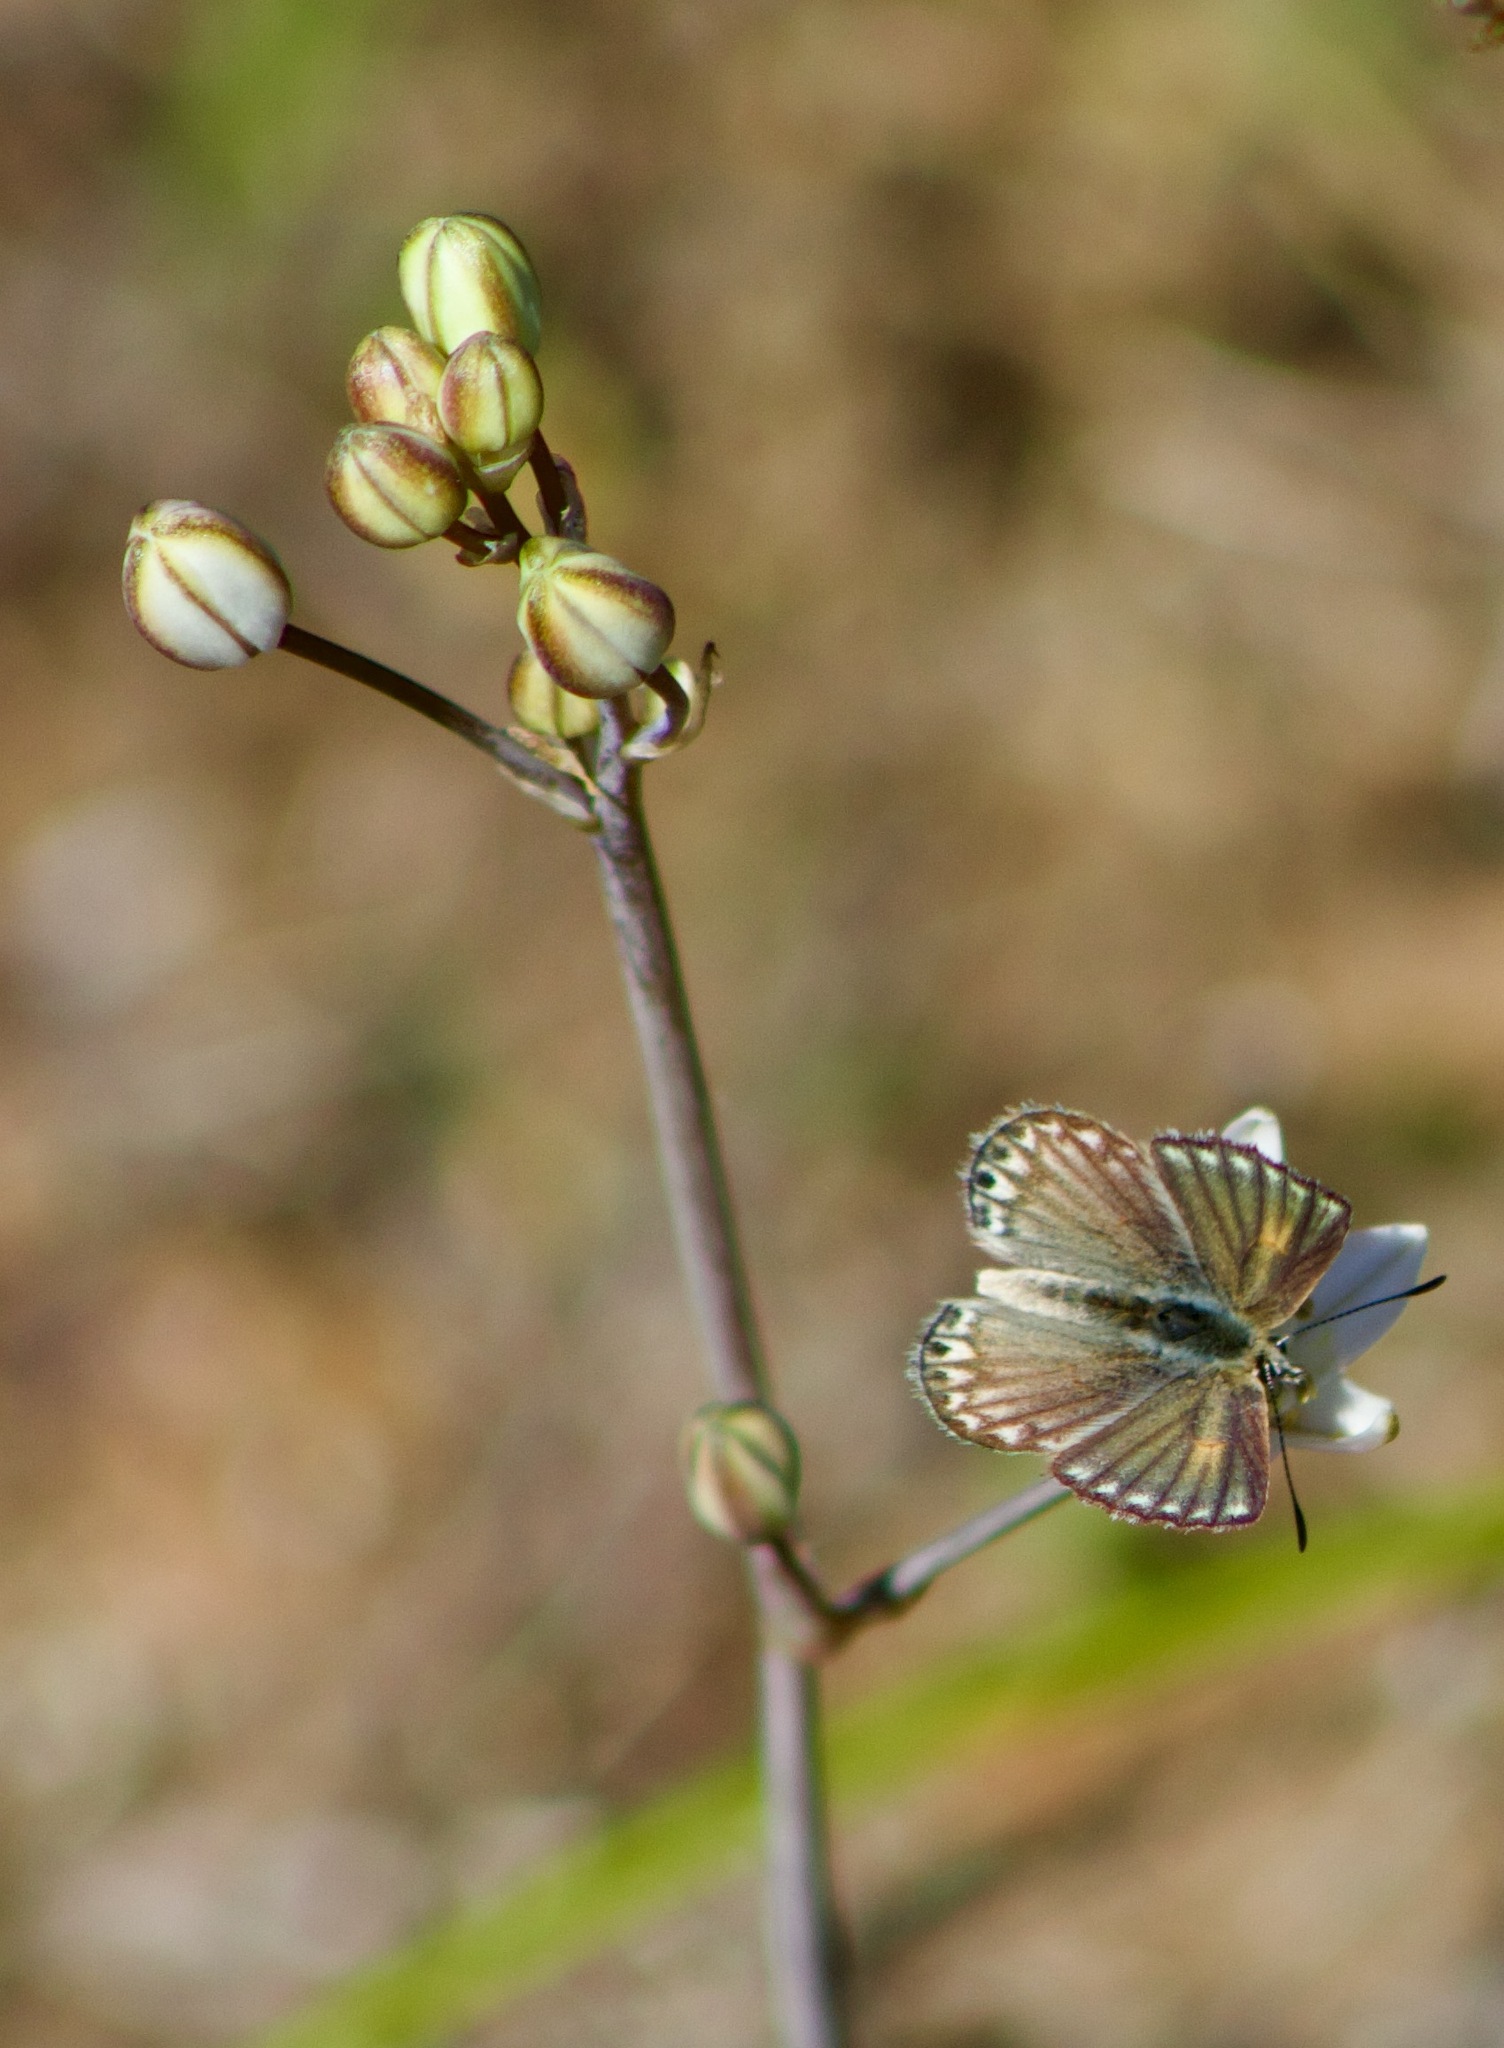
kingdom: Animalia
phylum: Arthropoda
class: Insecta
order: Lepidoptera
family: Lycaenidae
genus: Pseudolucia
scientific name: Pseudolucia chilensis
